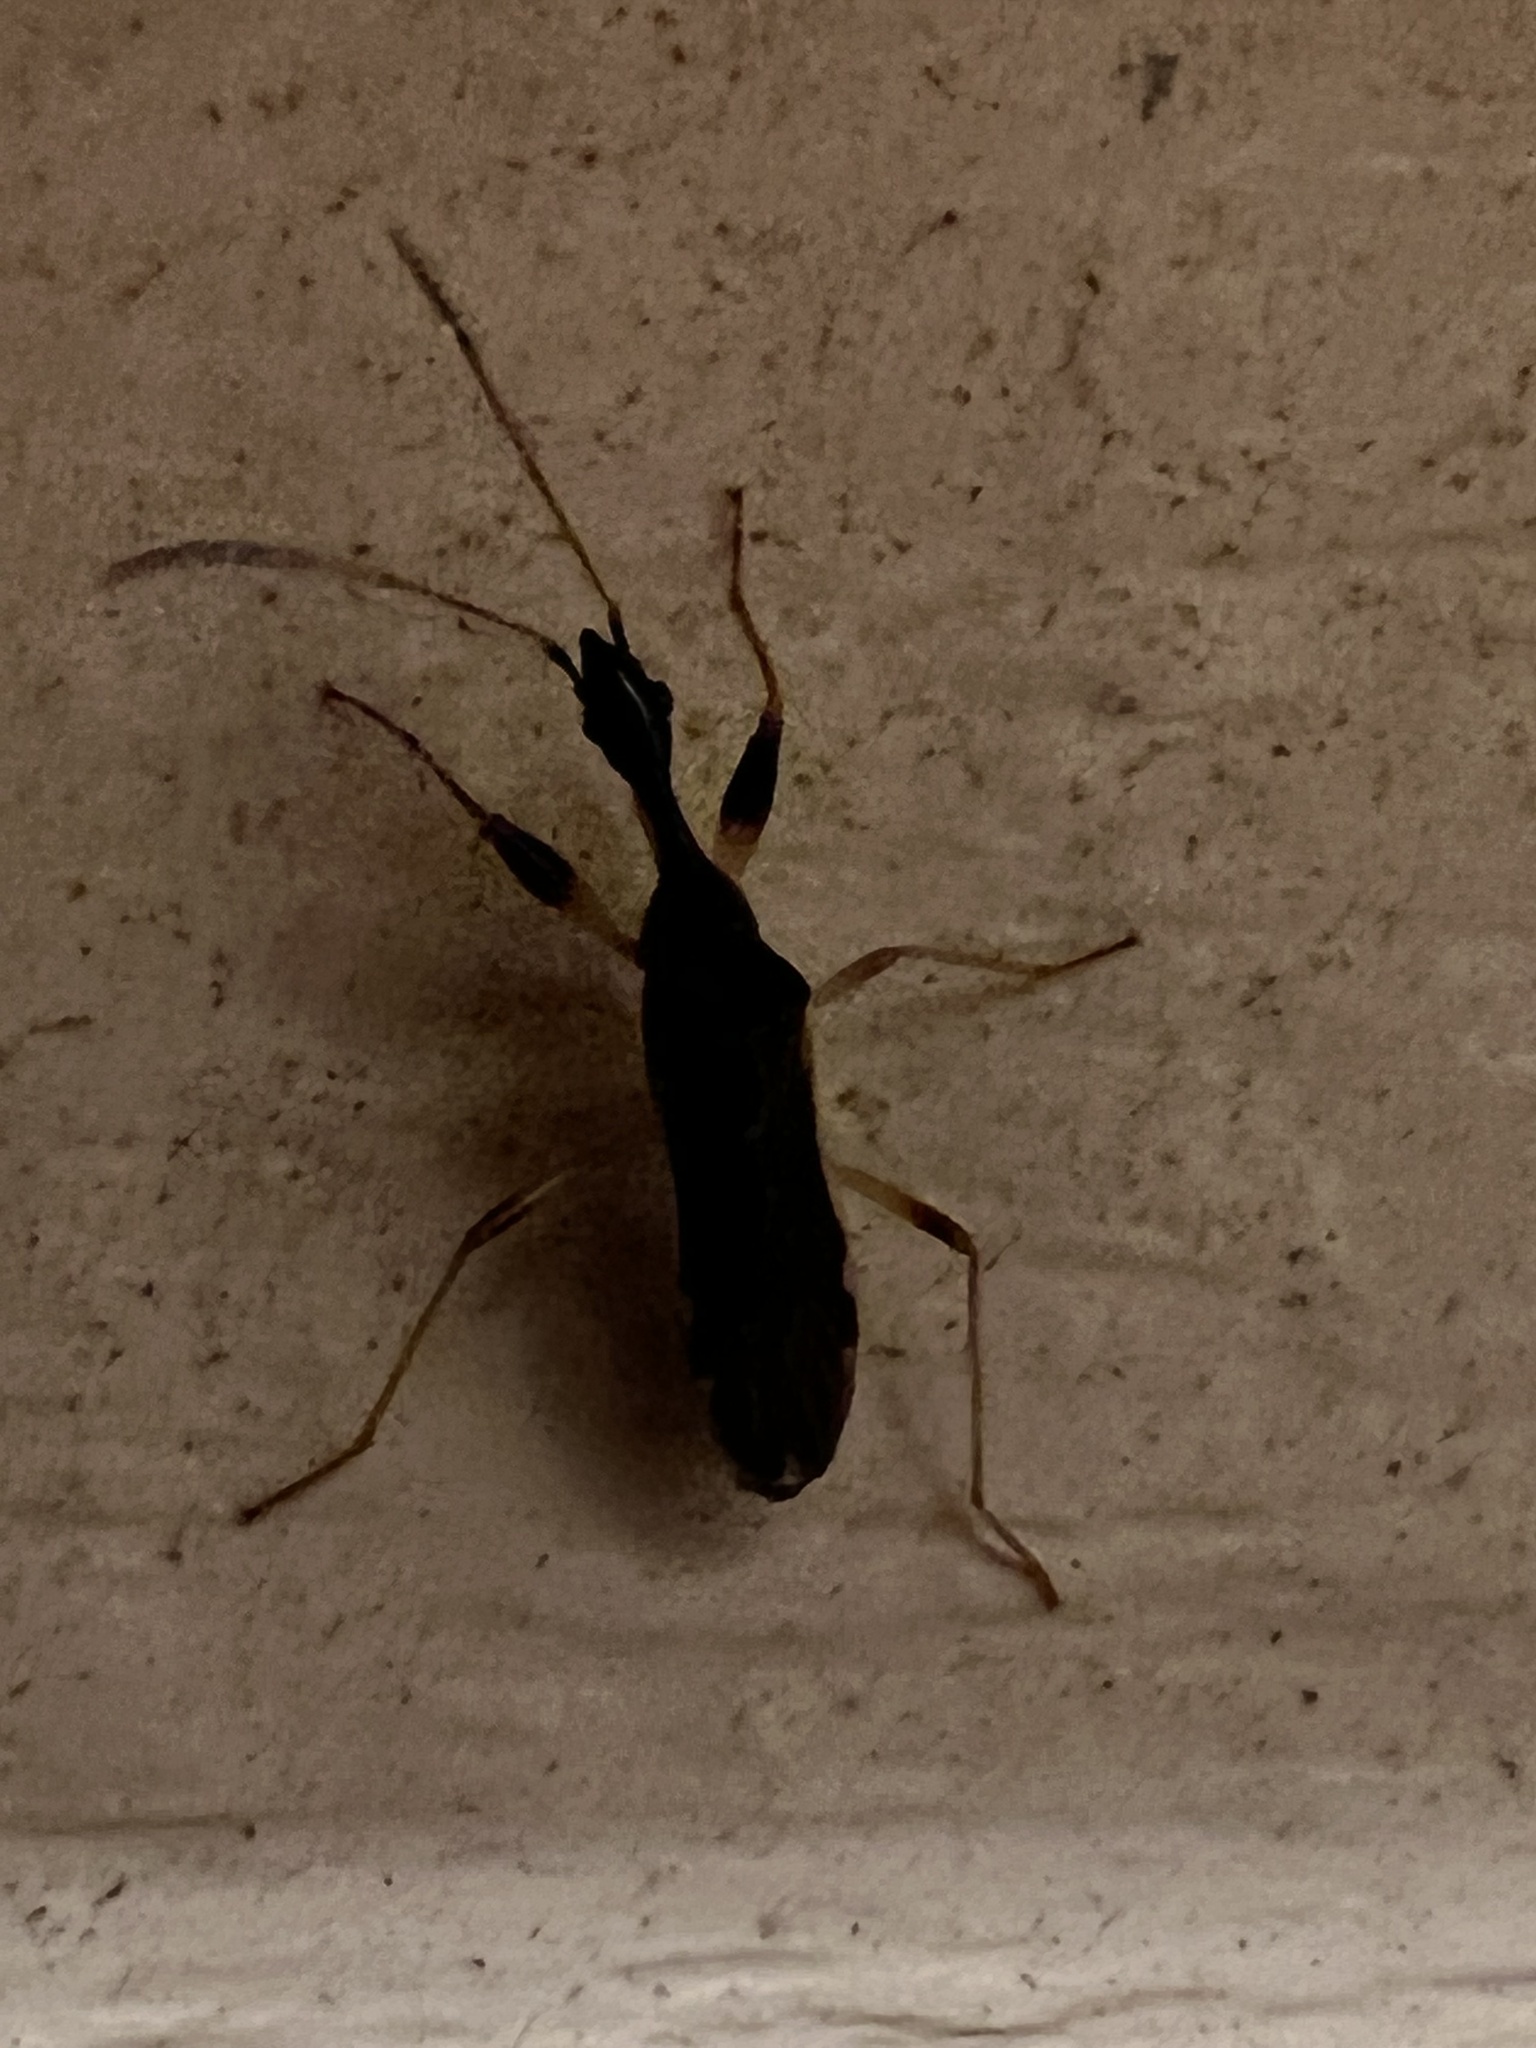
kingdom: Animalia
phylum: Arthropoda
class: Insecta
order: Hemiptera
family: Rhyparochromidae
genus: Myodocha
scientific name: Myodocha serripes
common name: Long-necked seed bug
